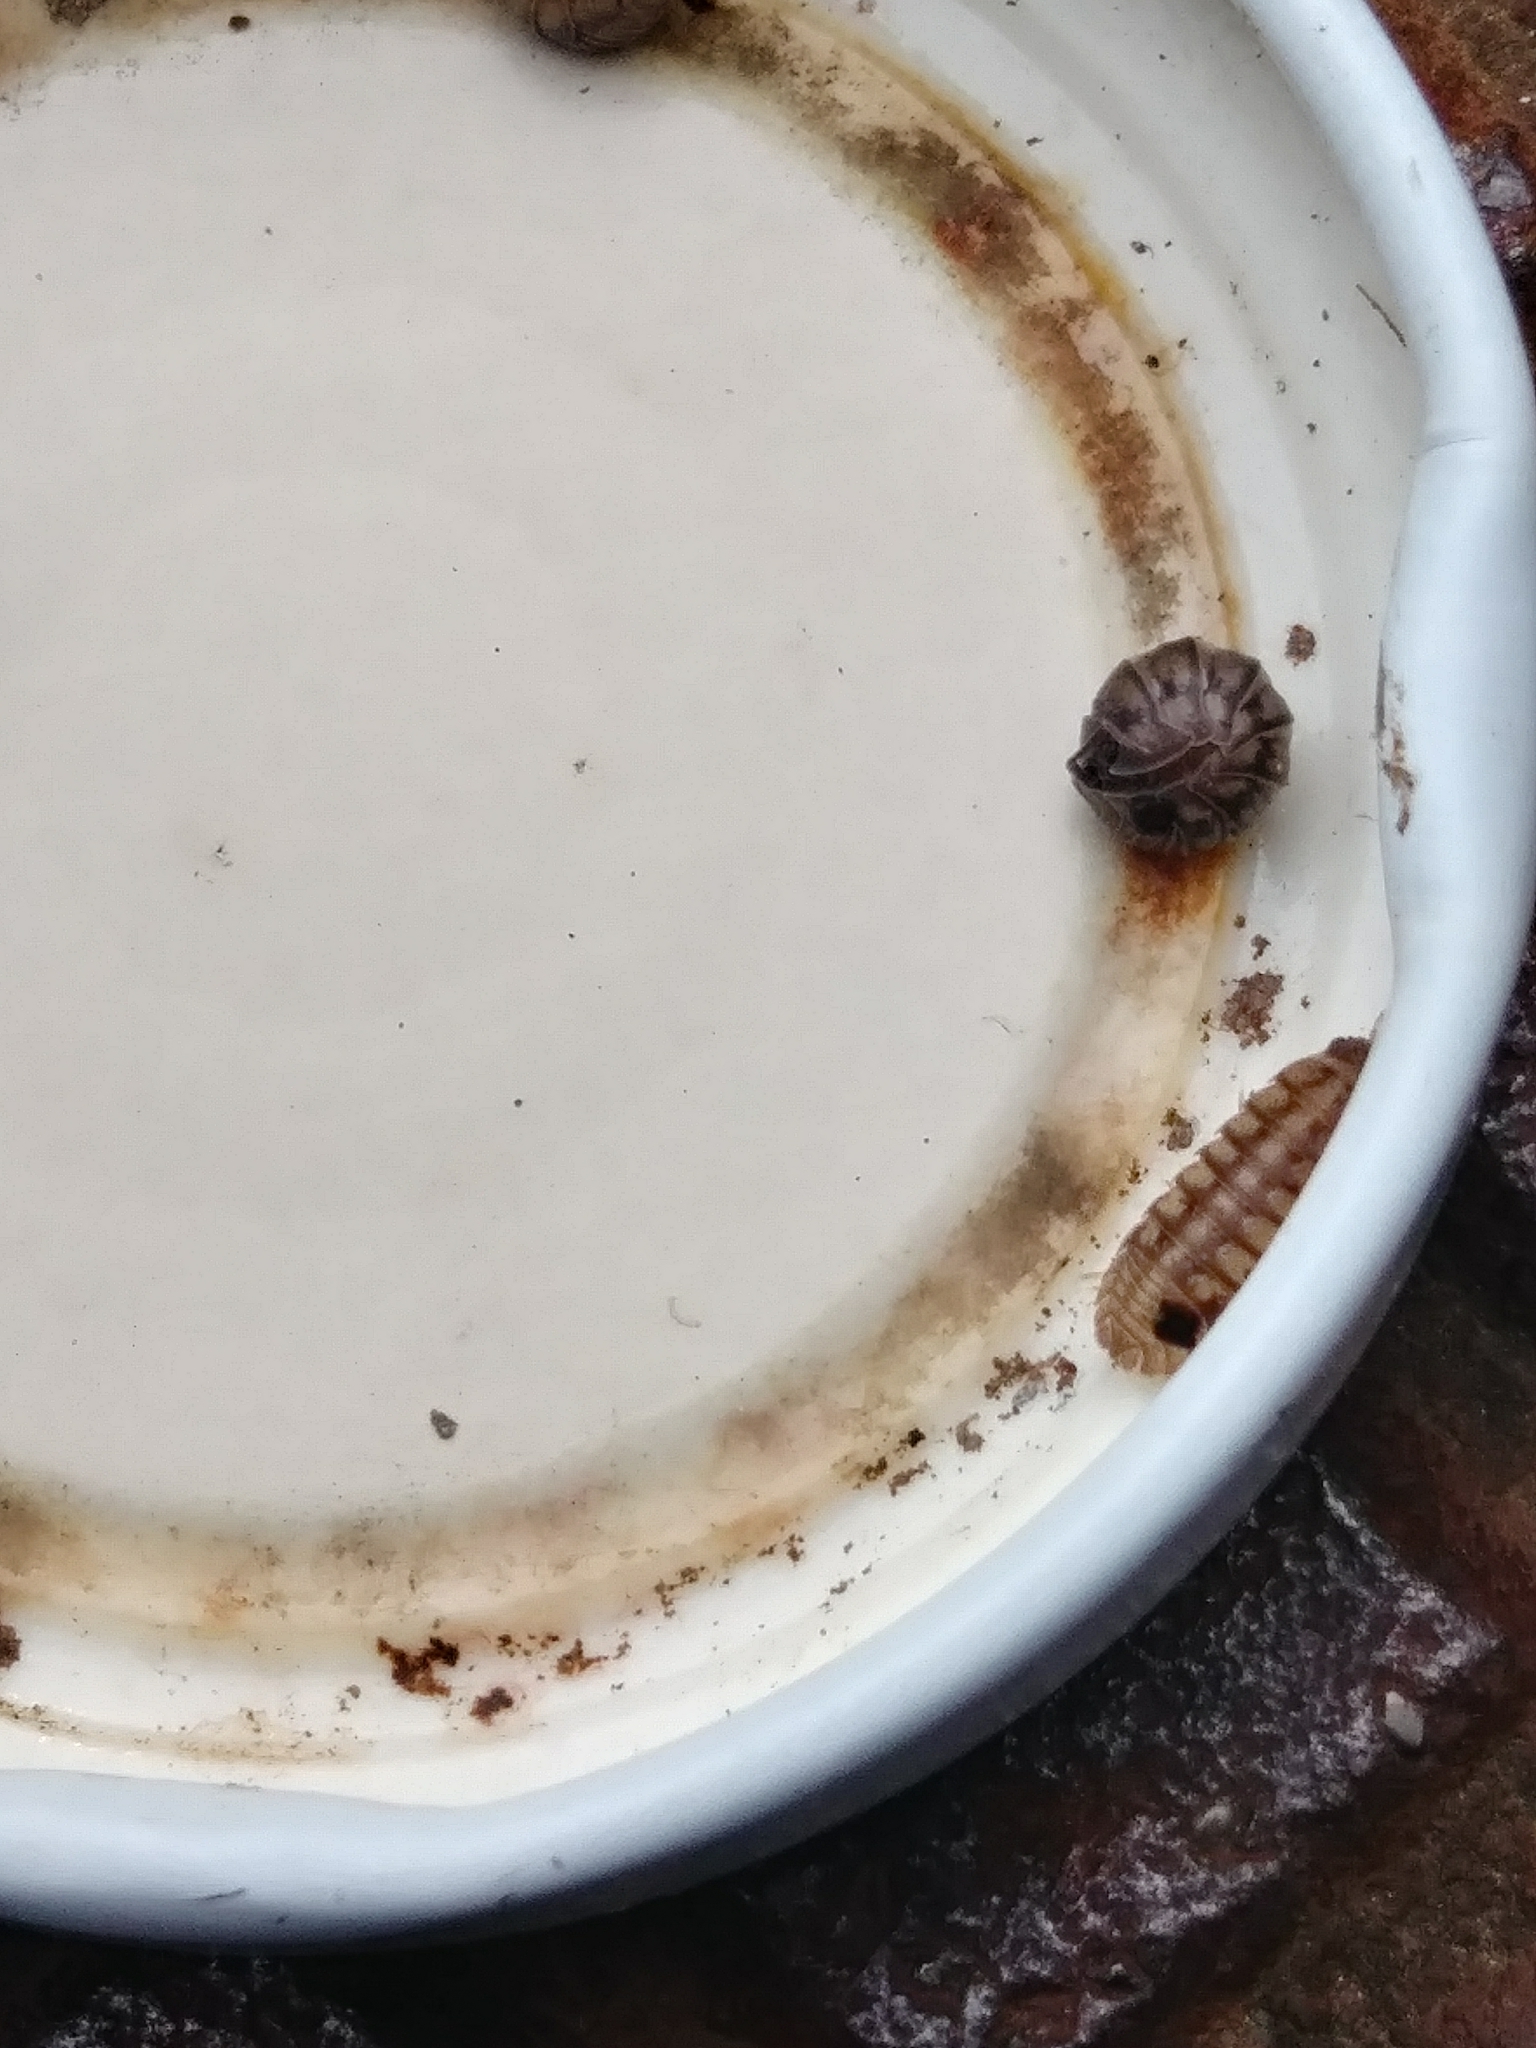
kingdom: Animalia
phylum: Arthropoda
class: Malacostraca
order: Isopoda
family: Armadillidiidae
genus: Armadillidium
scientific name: Armadillidium nasatum
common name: Isopod
